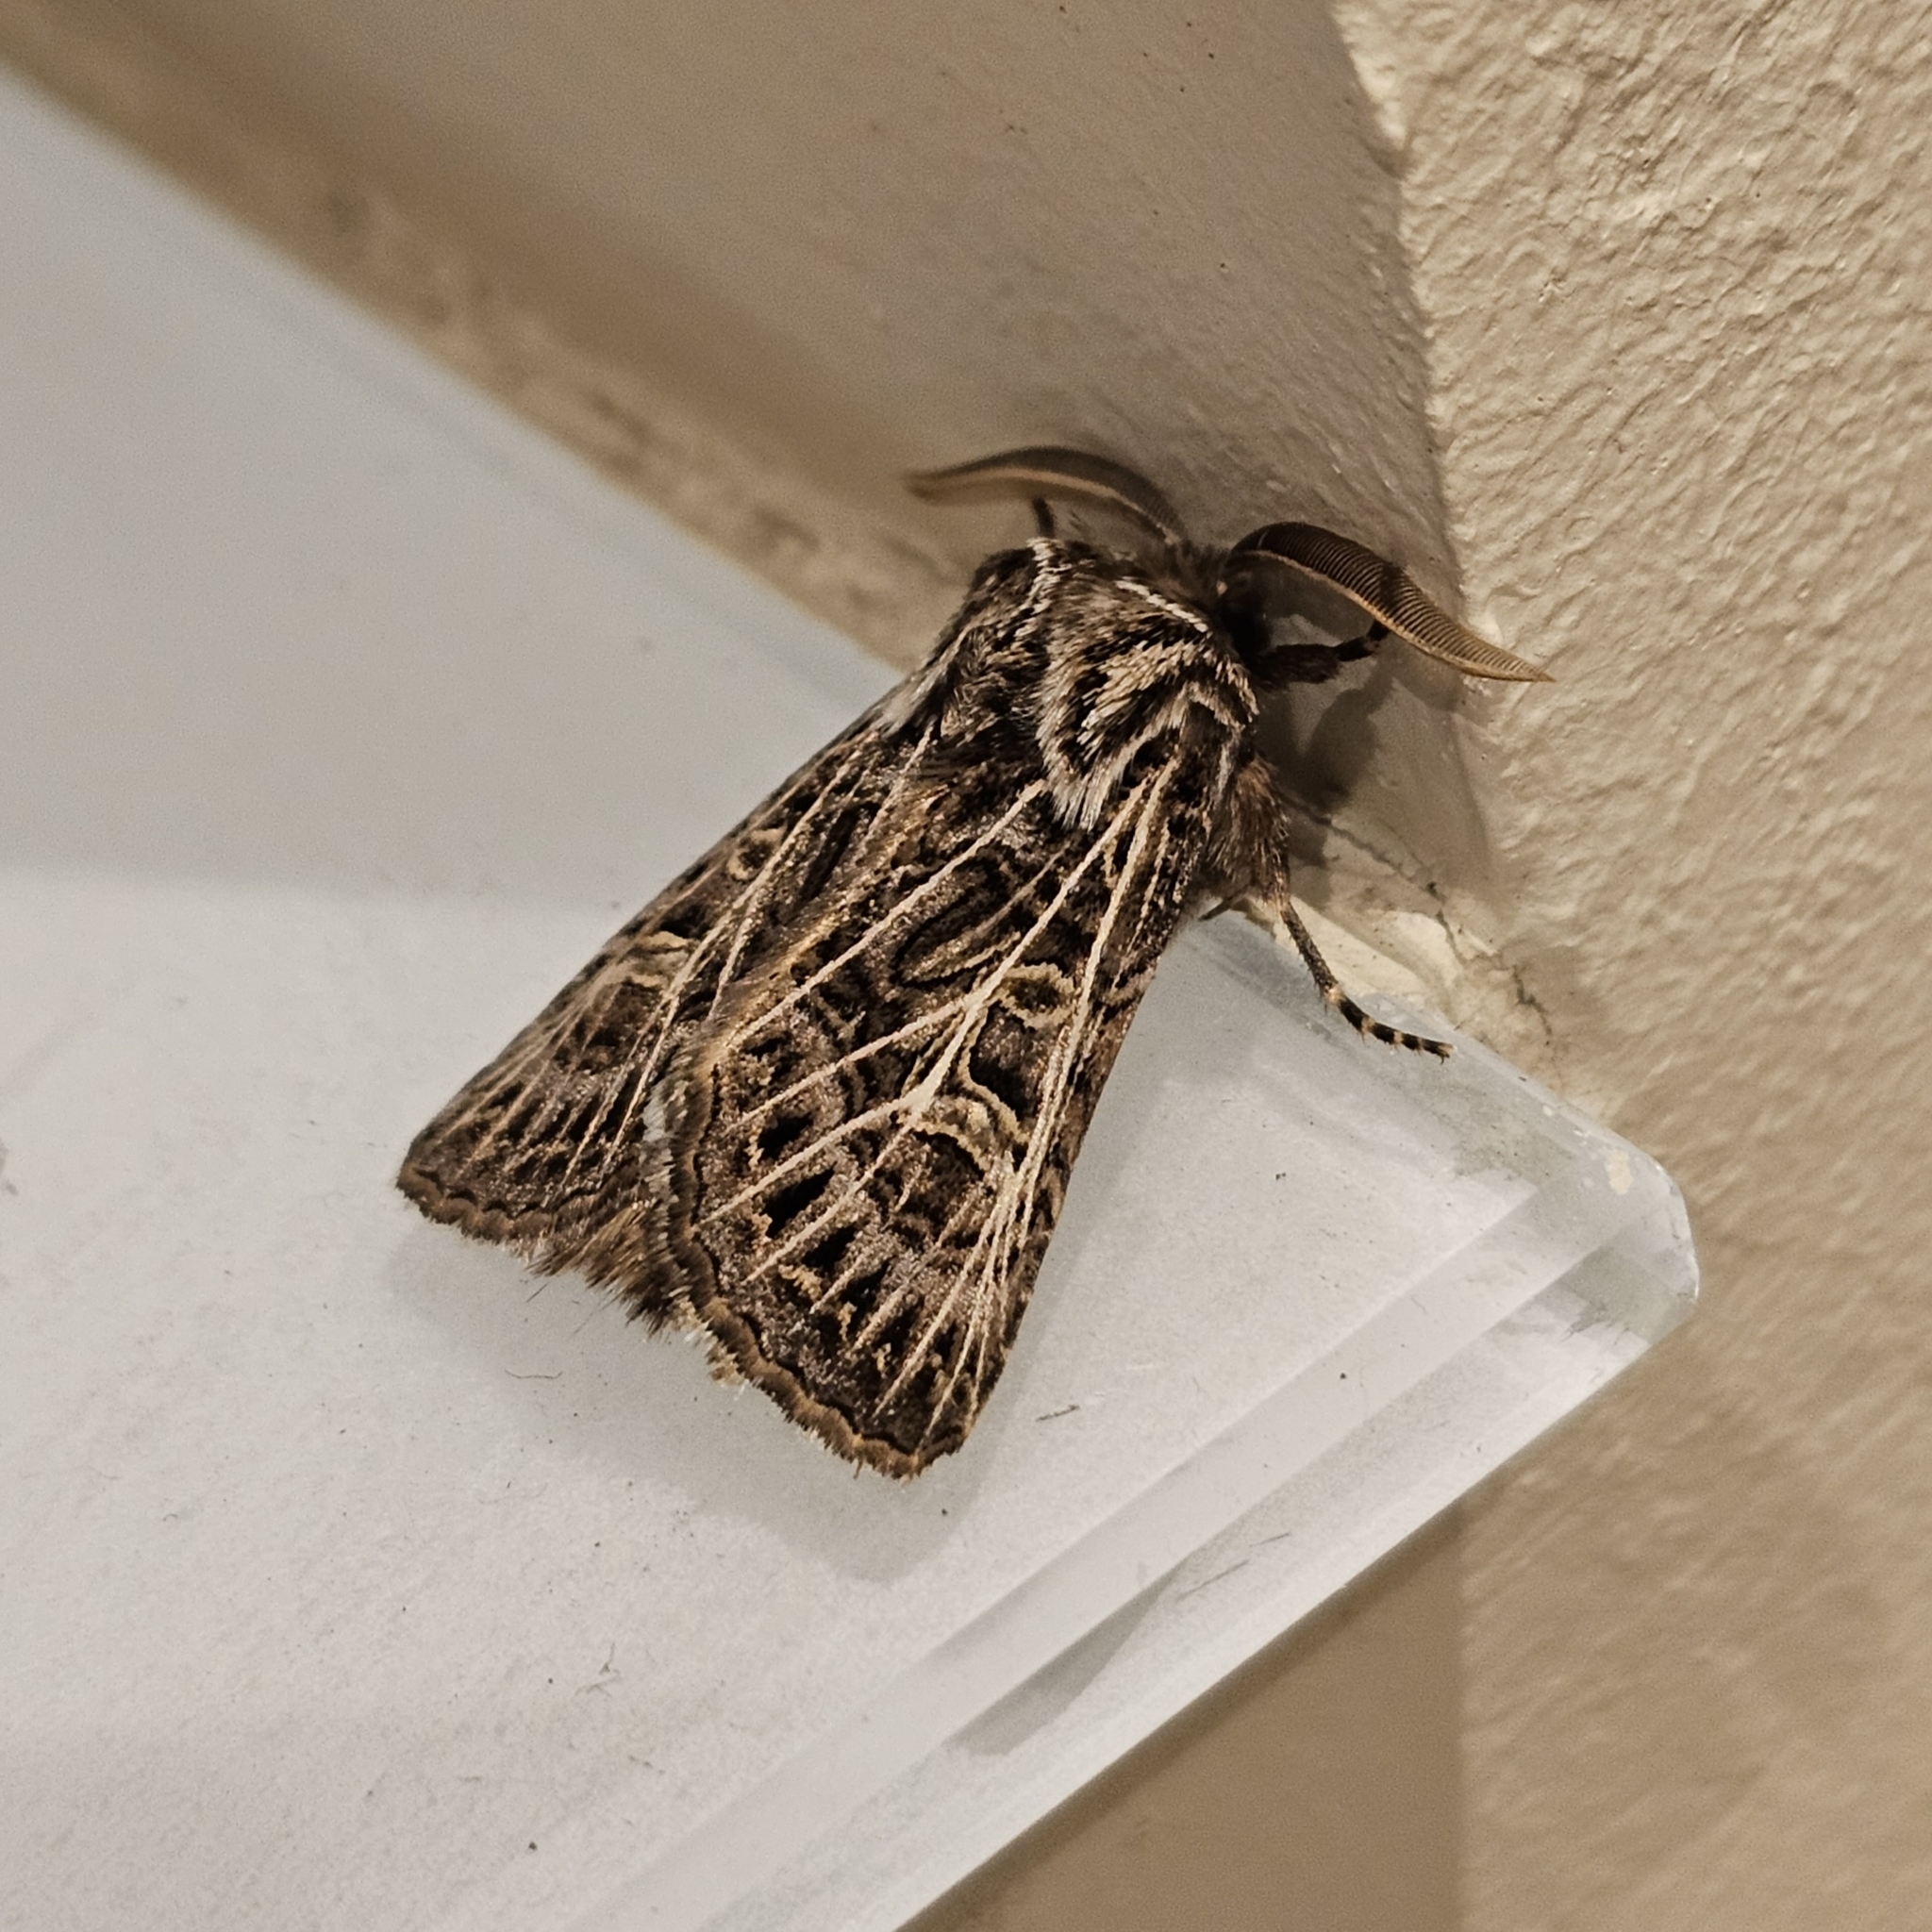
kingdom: Animalia
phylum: Arthropoda
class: Insecta
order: Lepidoptera
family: Noctuidae
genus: Tholera
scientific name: Tholera decimalis
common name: Feathered gothic
